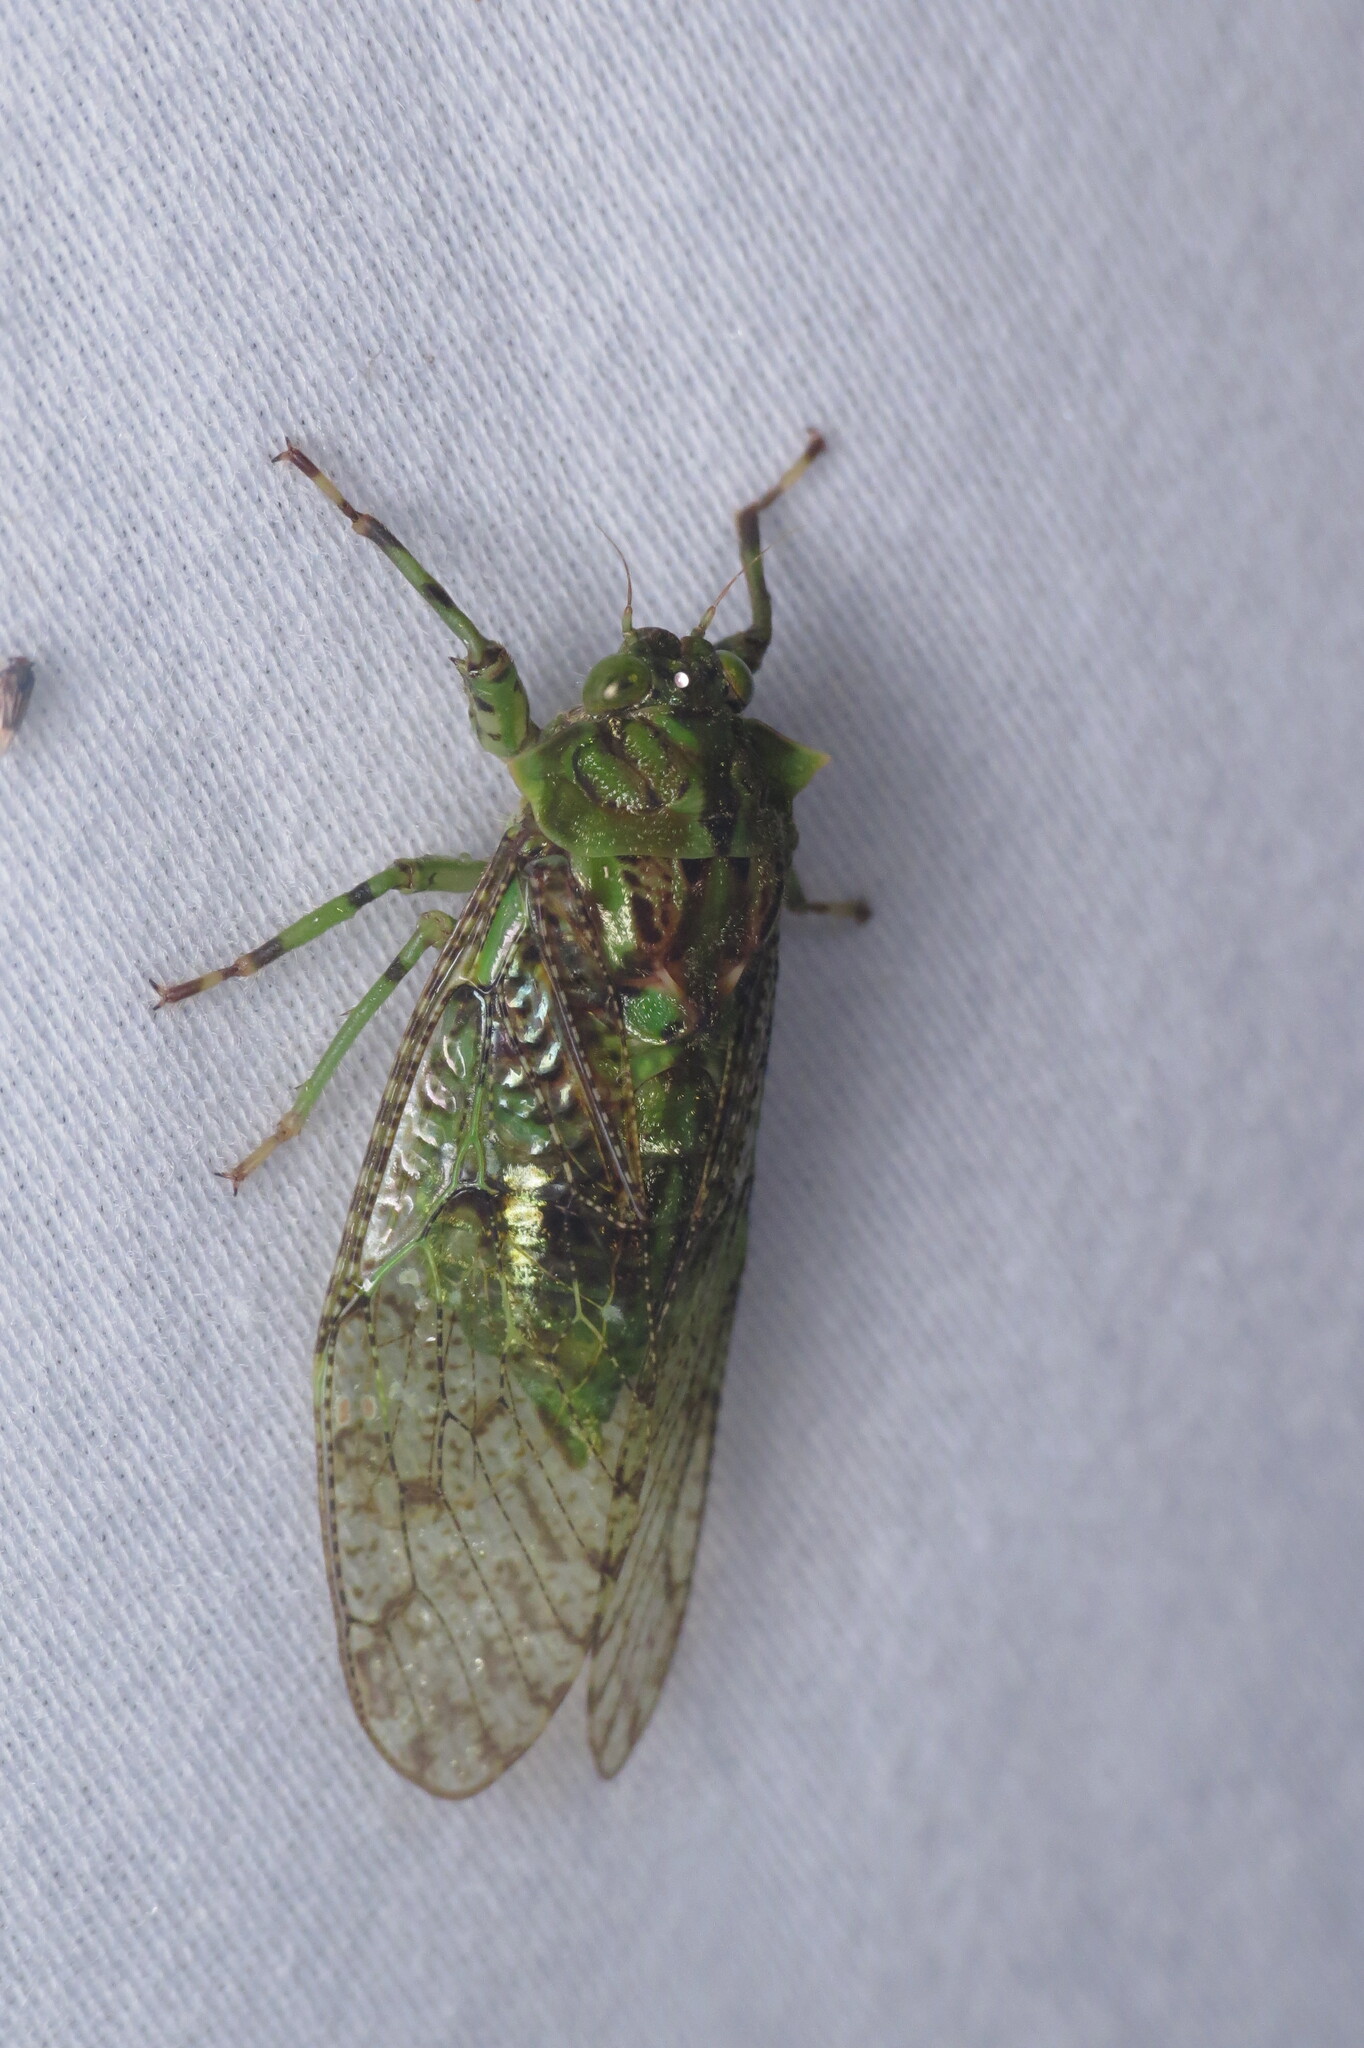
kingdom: Animalia
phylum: Arthropoda
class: Insecta
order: Hemiptera
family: Cicadidae
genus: Borencona
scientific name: Borencona aguadilla
